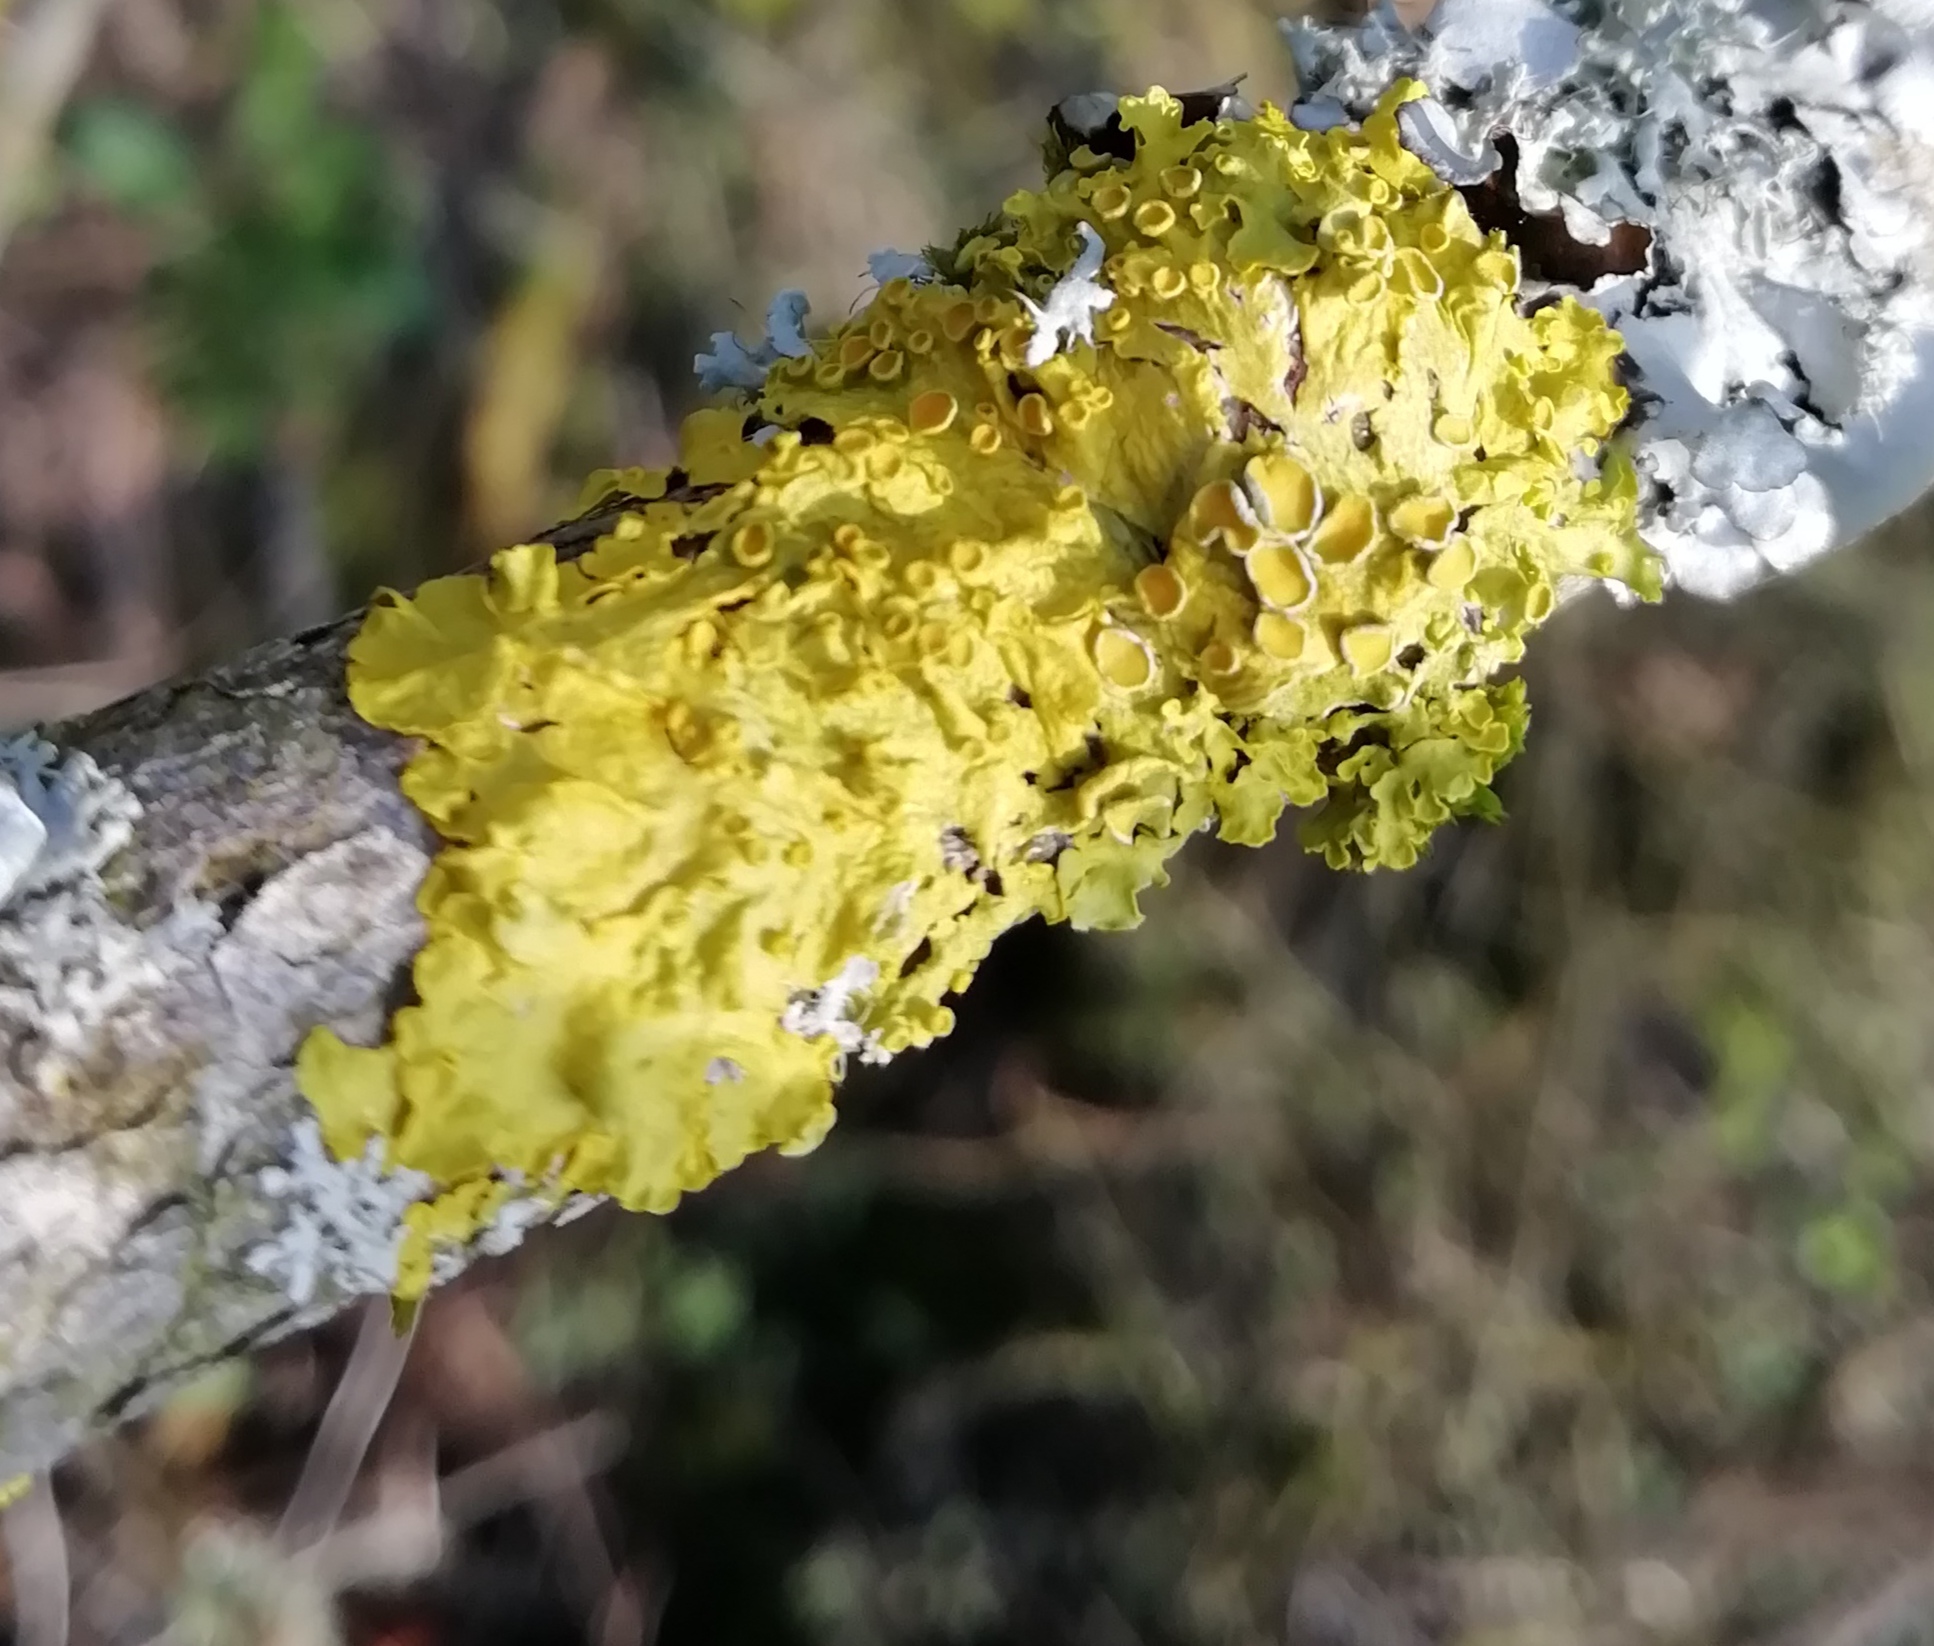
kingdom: Fungi
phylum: Ascomycota
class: Lecanoromycetes
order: Teloschistales
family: Teloschistaceae
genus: Xanthoria
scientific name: Xanthoria parietina
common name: Common orange lichen
